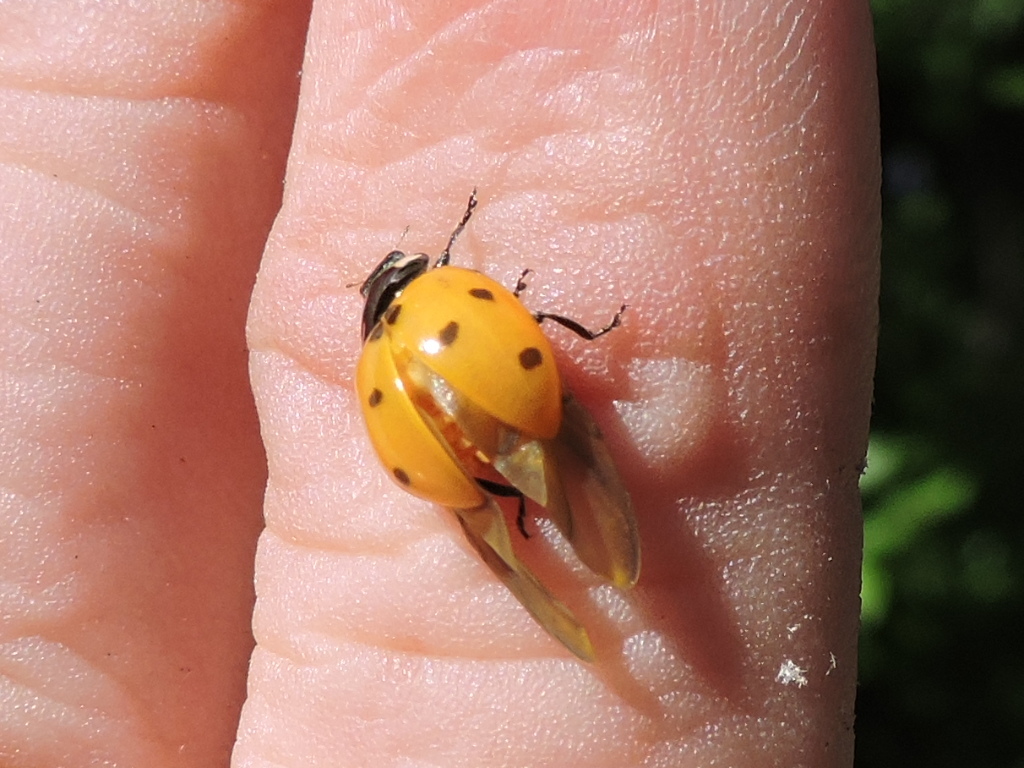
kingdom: Animalia
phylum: Arthropoda
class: Insecta
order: Coleoptera
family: Coccinellidae
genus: Coccinella
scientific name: Coccinella septempunctata
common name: Sevenspotted lady beetle
